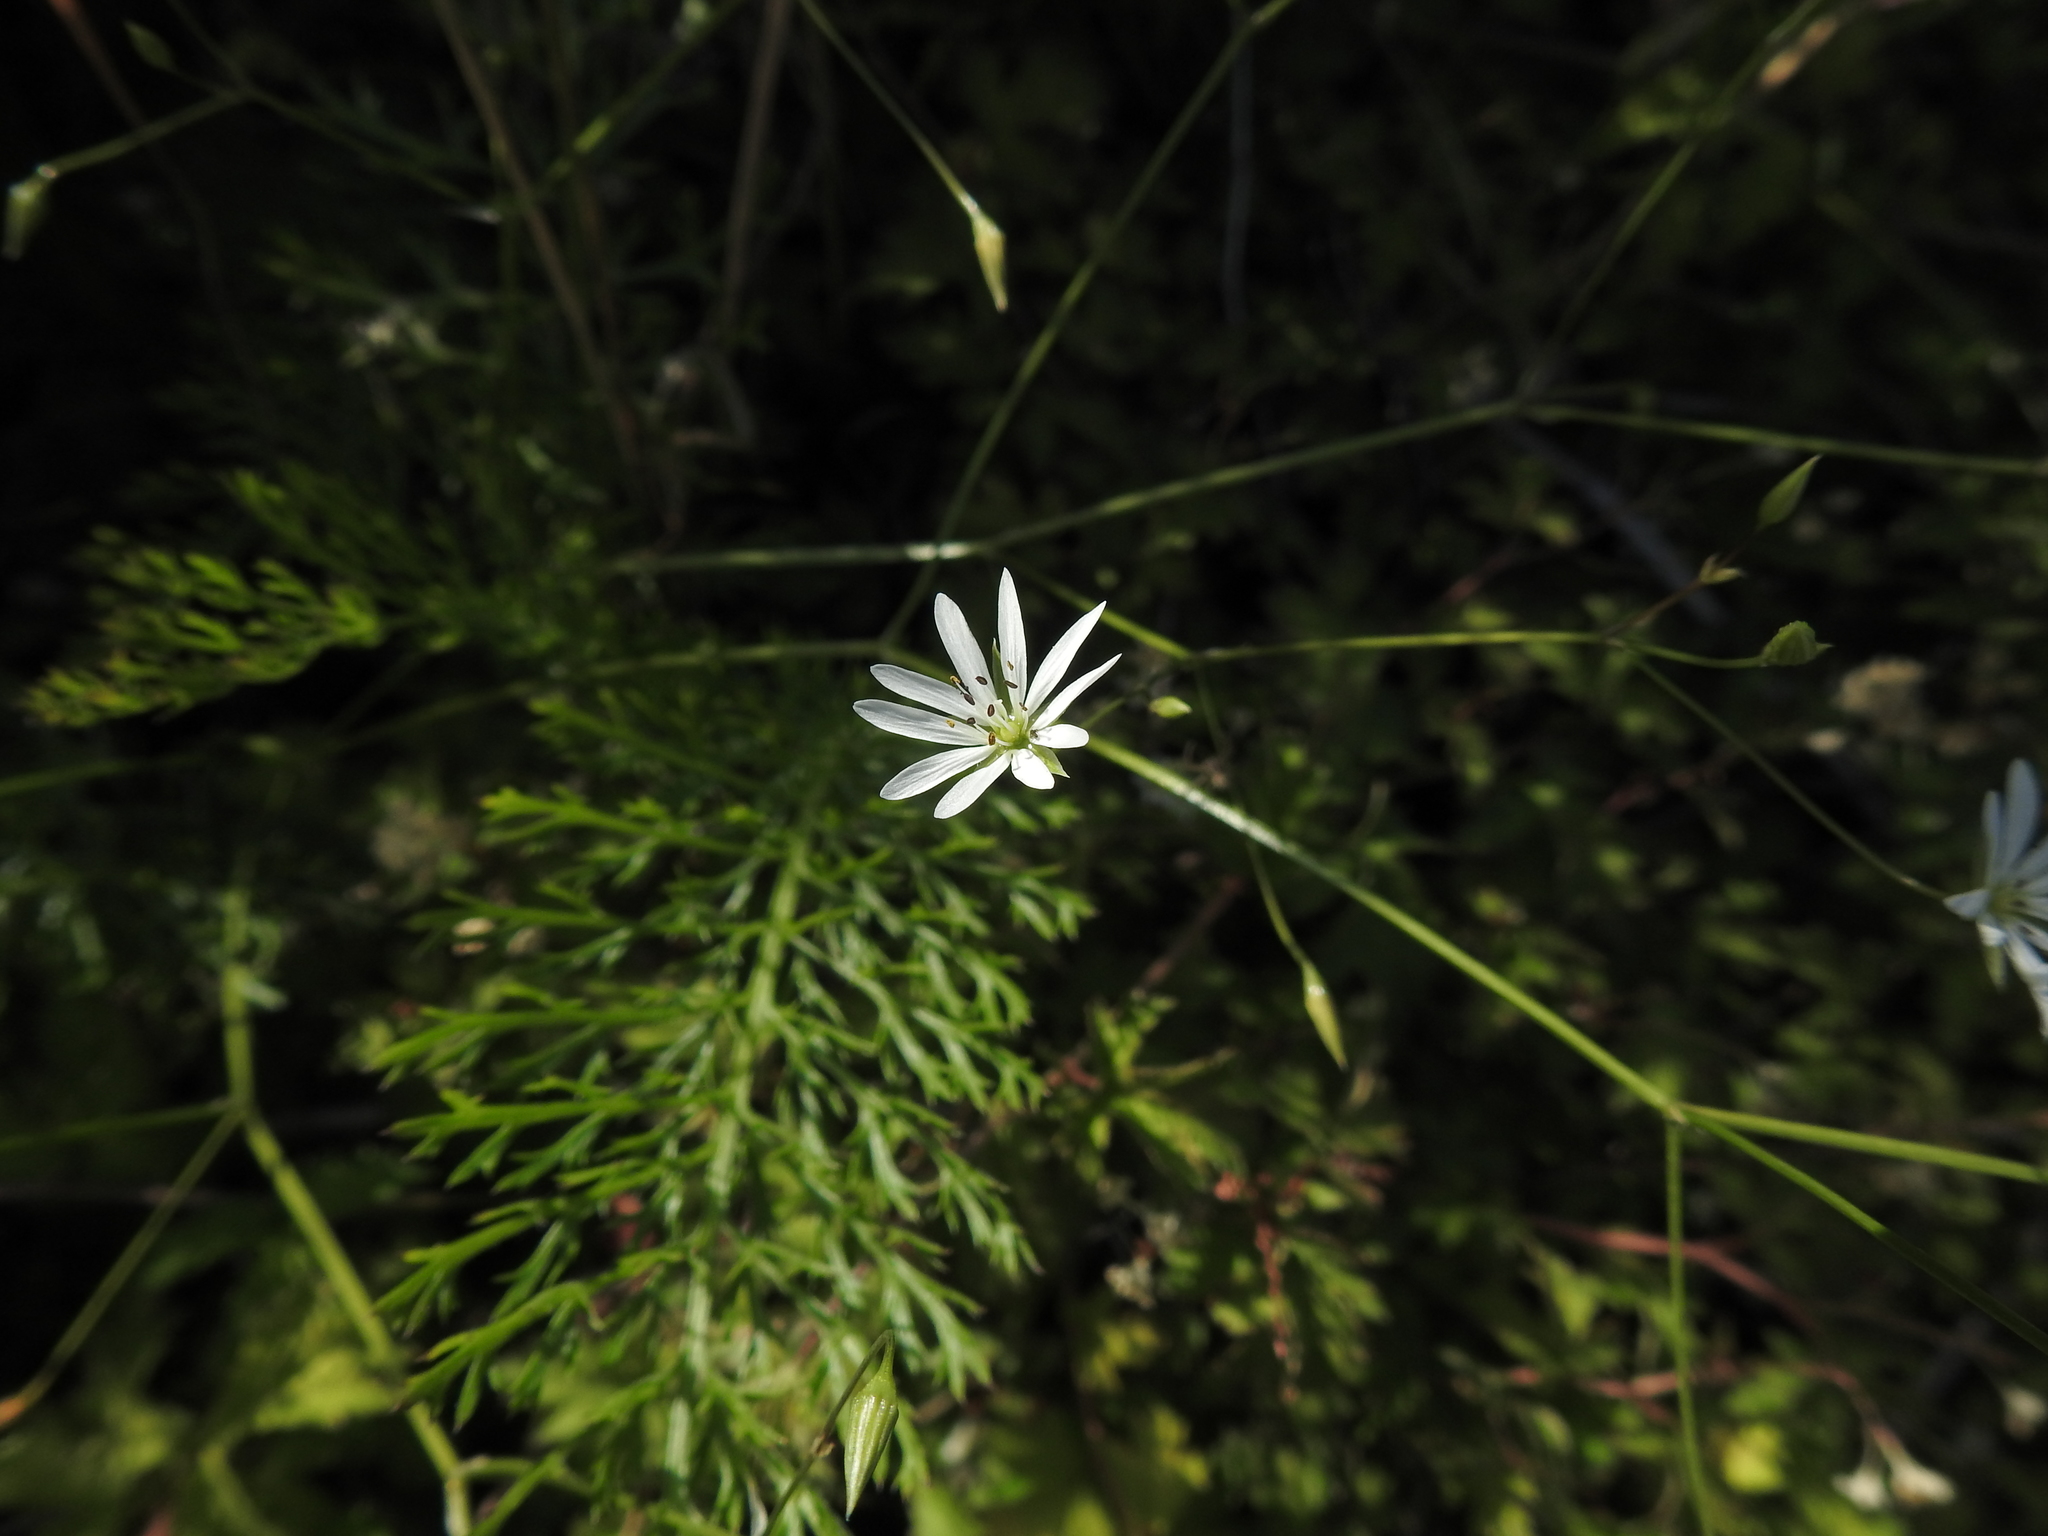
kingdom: Plantae
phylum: Tracheophyta
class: Magnoliopsida
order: Caryophyllales
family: Caryophyllaceae
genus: Stellaria
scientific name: Stellaria graminea
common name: Grass-like starwort
